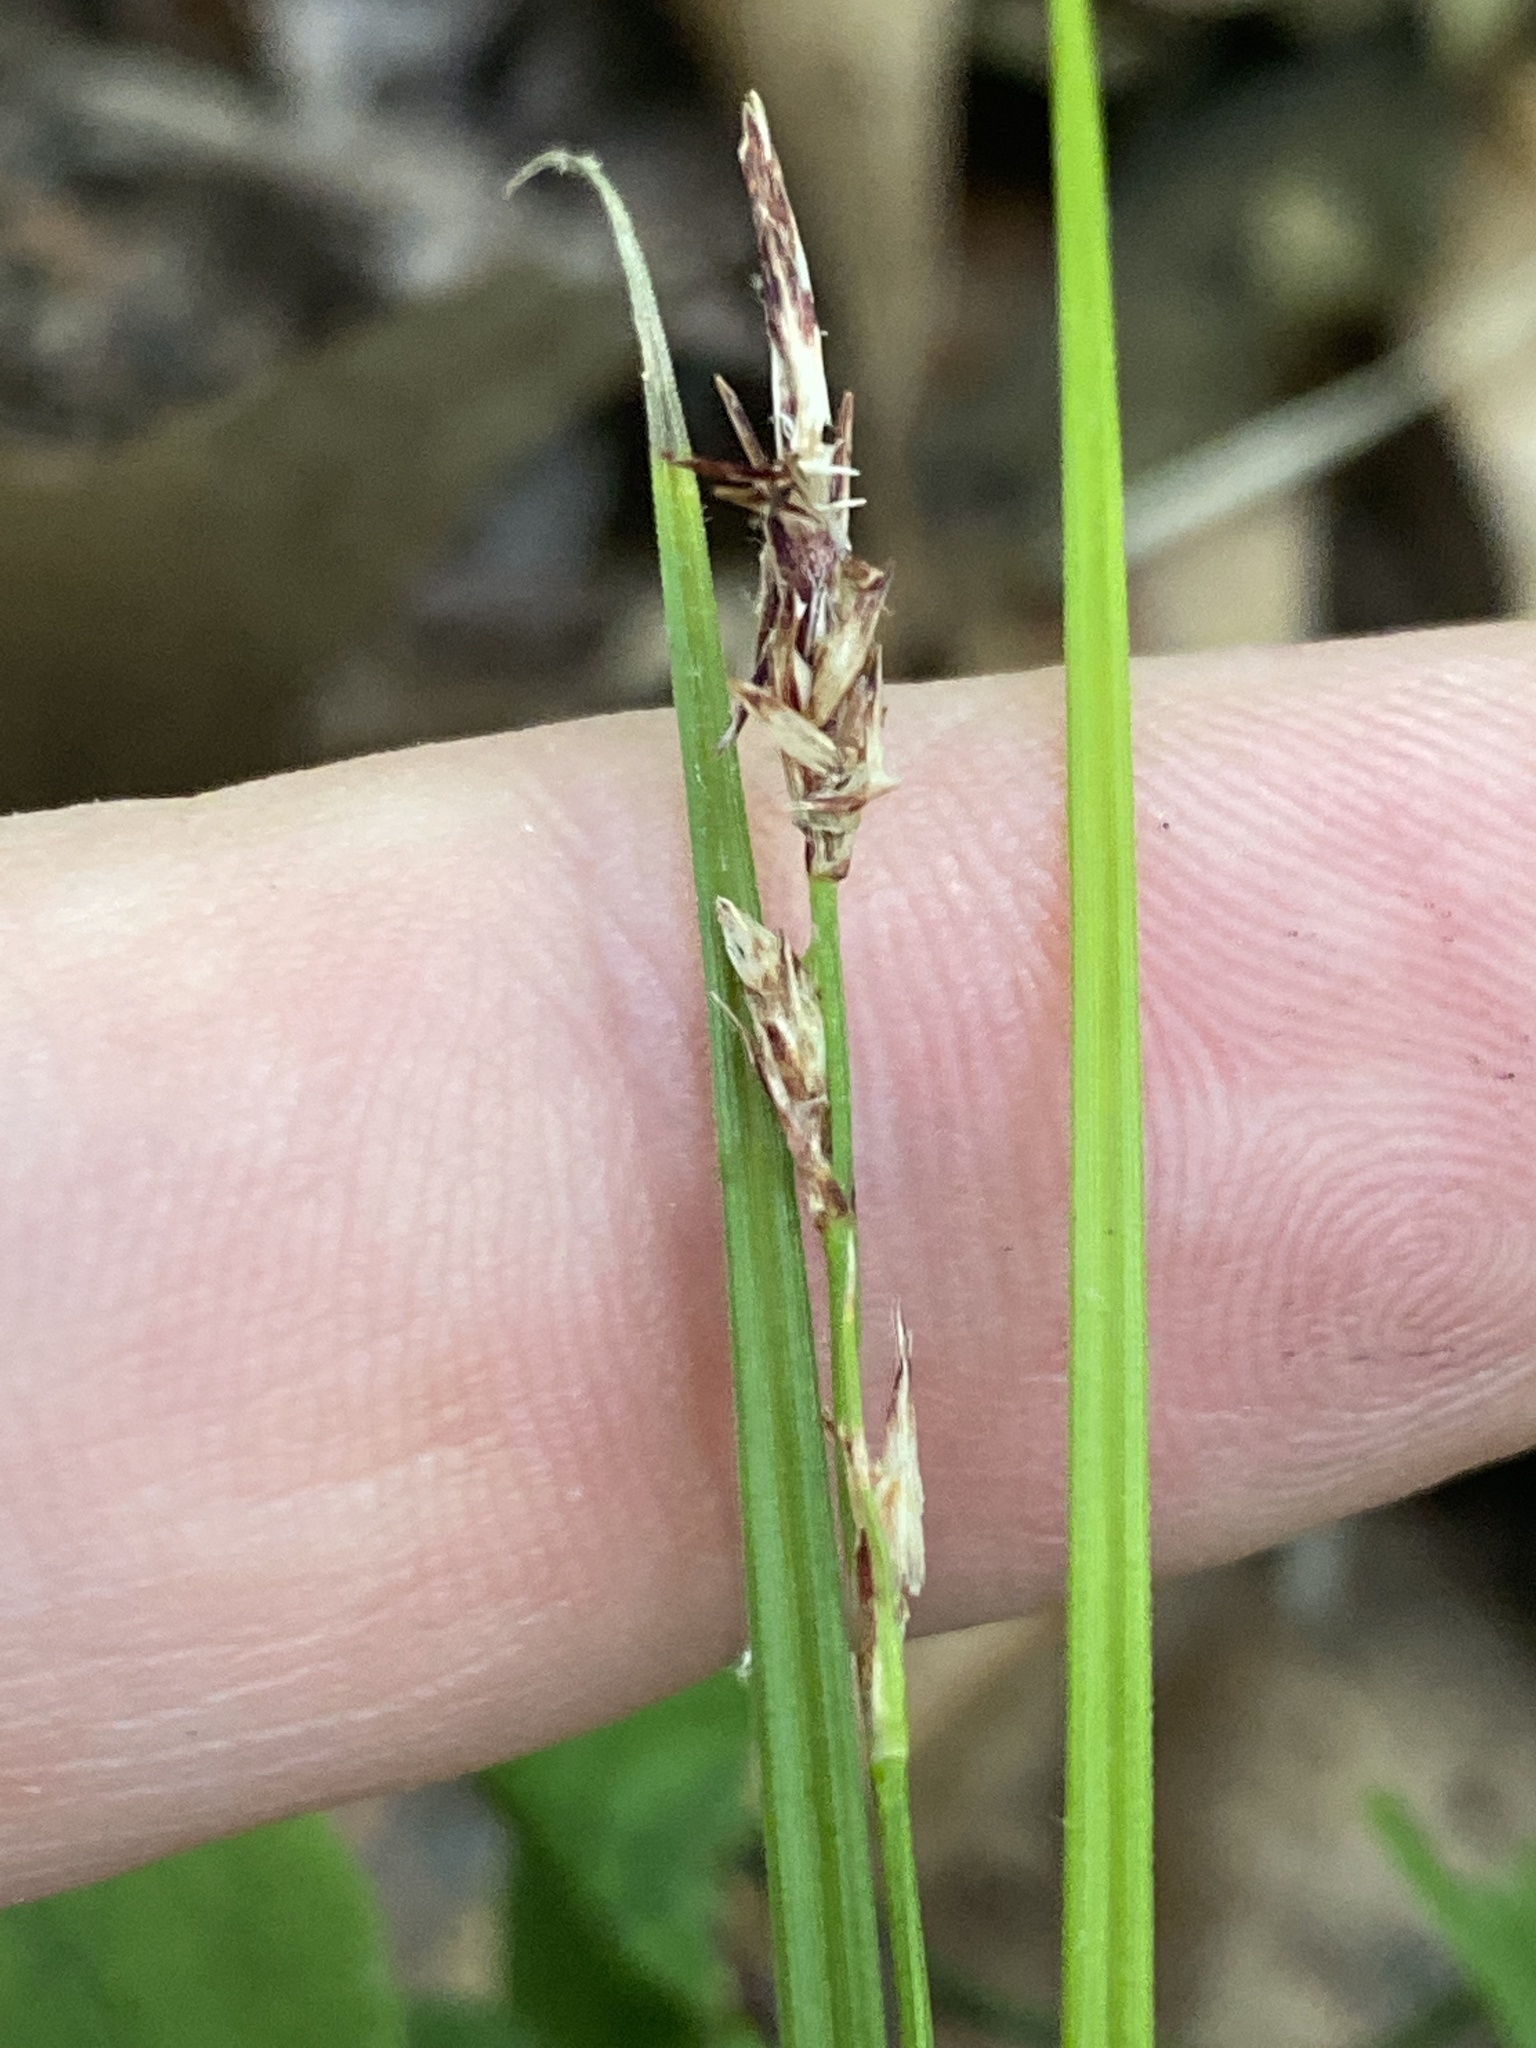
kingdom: Plantae
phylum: Tracheophyta
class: Liliopsida
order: Poales
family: Cyperaceae
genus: Carex
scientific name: Carex pensylvanica
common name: Common oak sedge
